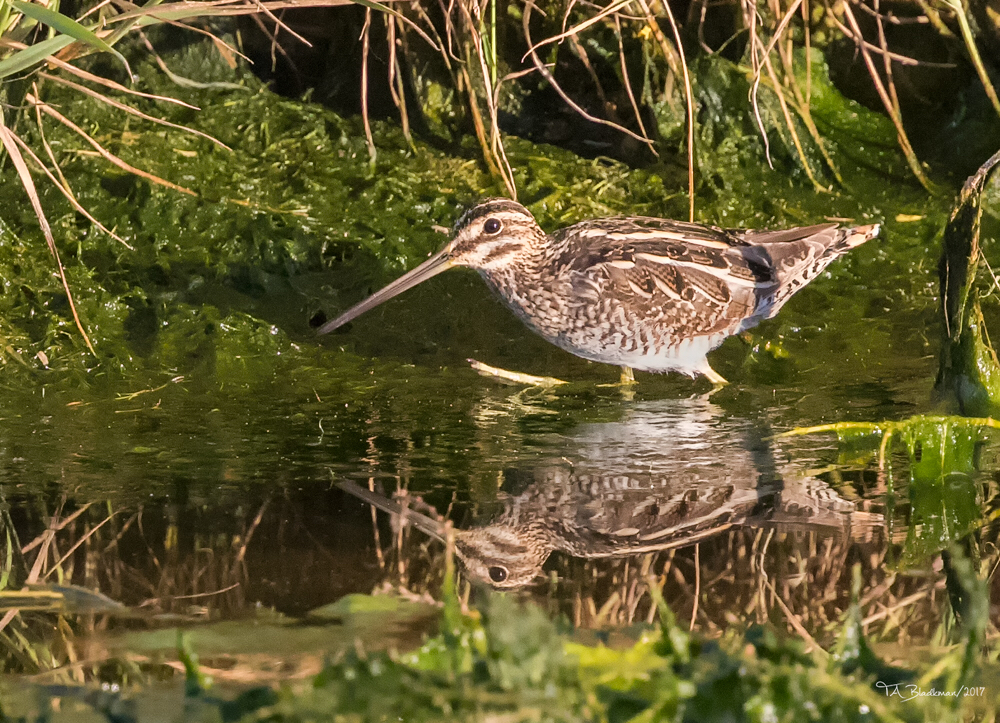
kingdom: Animalia
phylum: Chordata
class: Aves
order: Charadriiformes
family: Scolopacidae
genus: Gallinago
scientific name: Gallinago delicata
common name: Wilson's snipe
